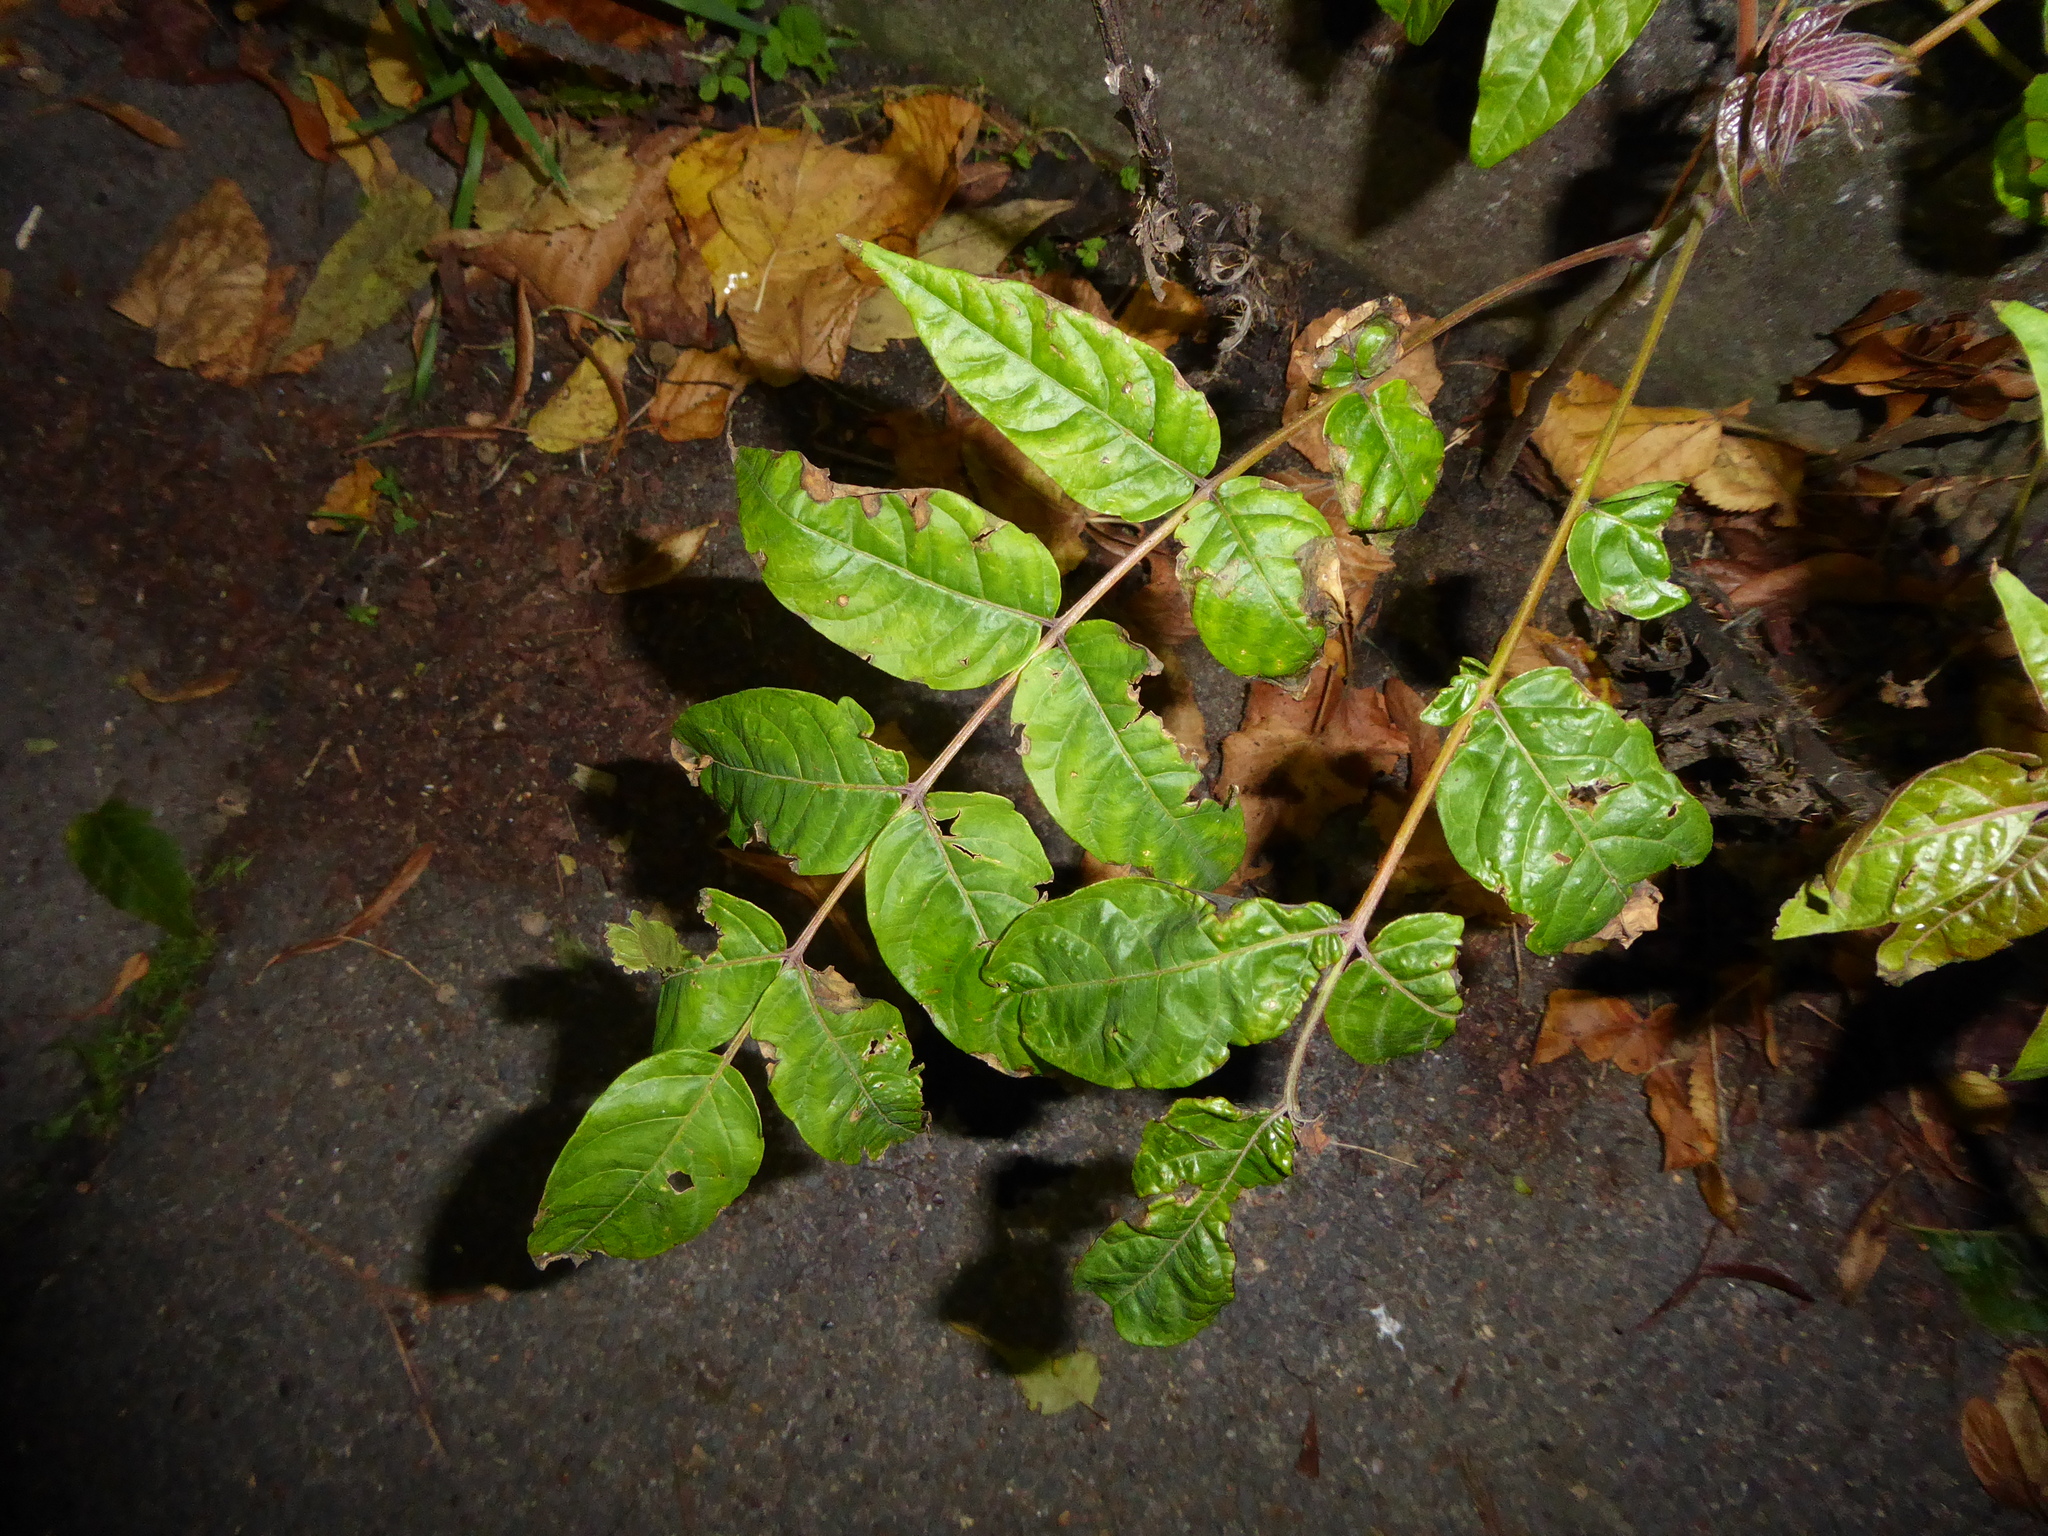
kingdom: Plantae
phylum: Tracheophyta
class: Magnoliopsida
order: Sapindales
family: Simaroubaceae
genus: Ailanthus
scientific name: Ailanthus altissima
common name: Tree-of-heaven
